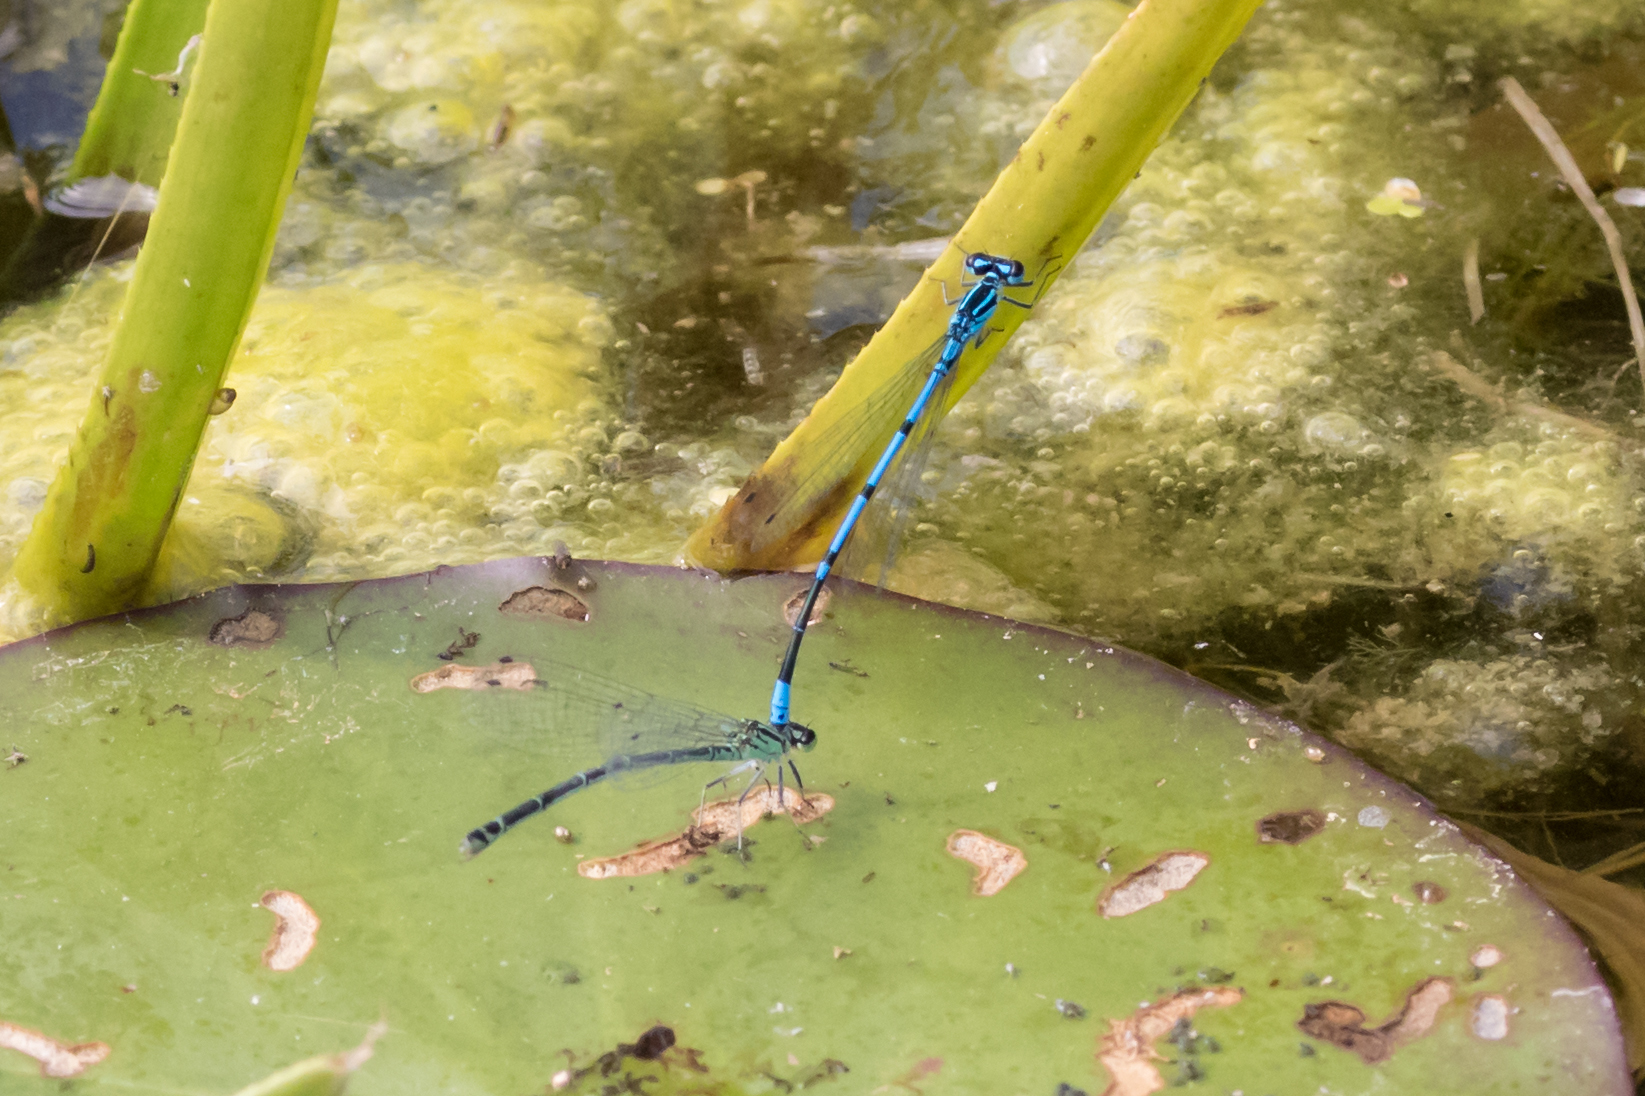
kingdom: Animalia
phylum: Arthropoda
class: Insecta
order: Odonata
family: Coenagrionidae
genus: Coenagrion
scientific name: Coenagrion puella
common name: Azure damselfly
